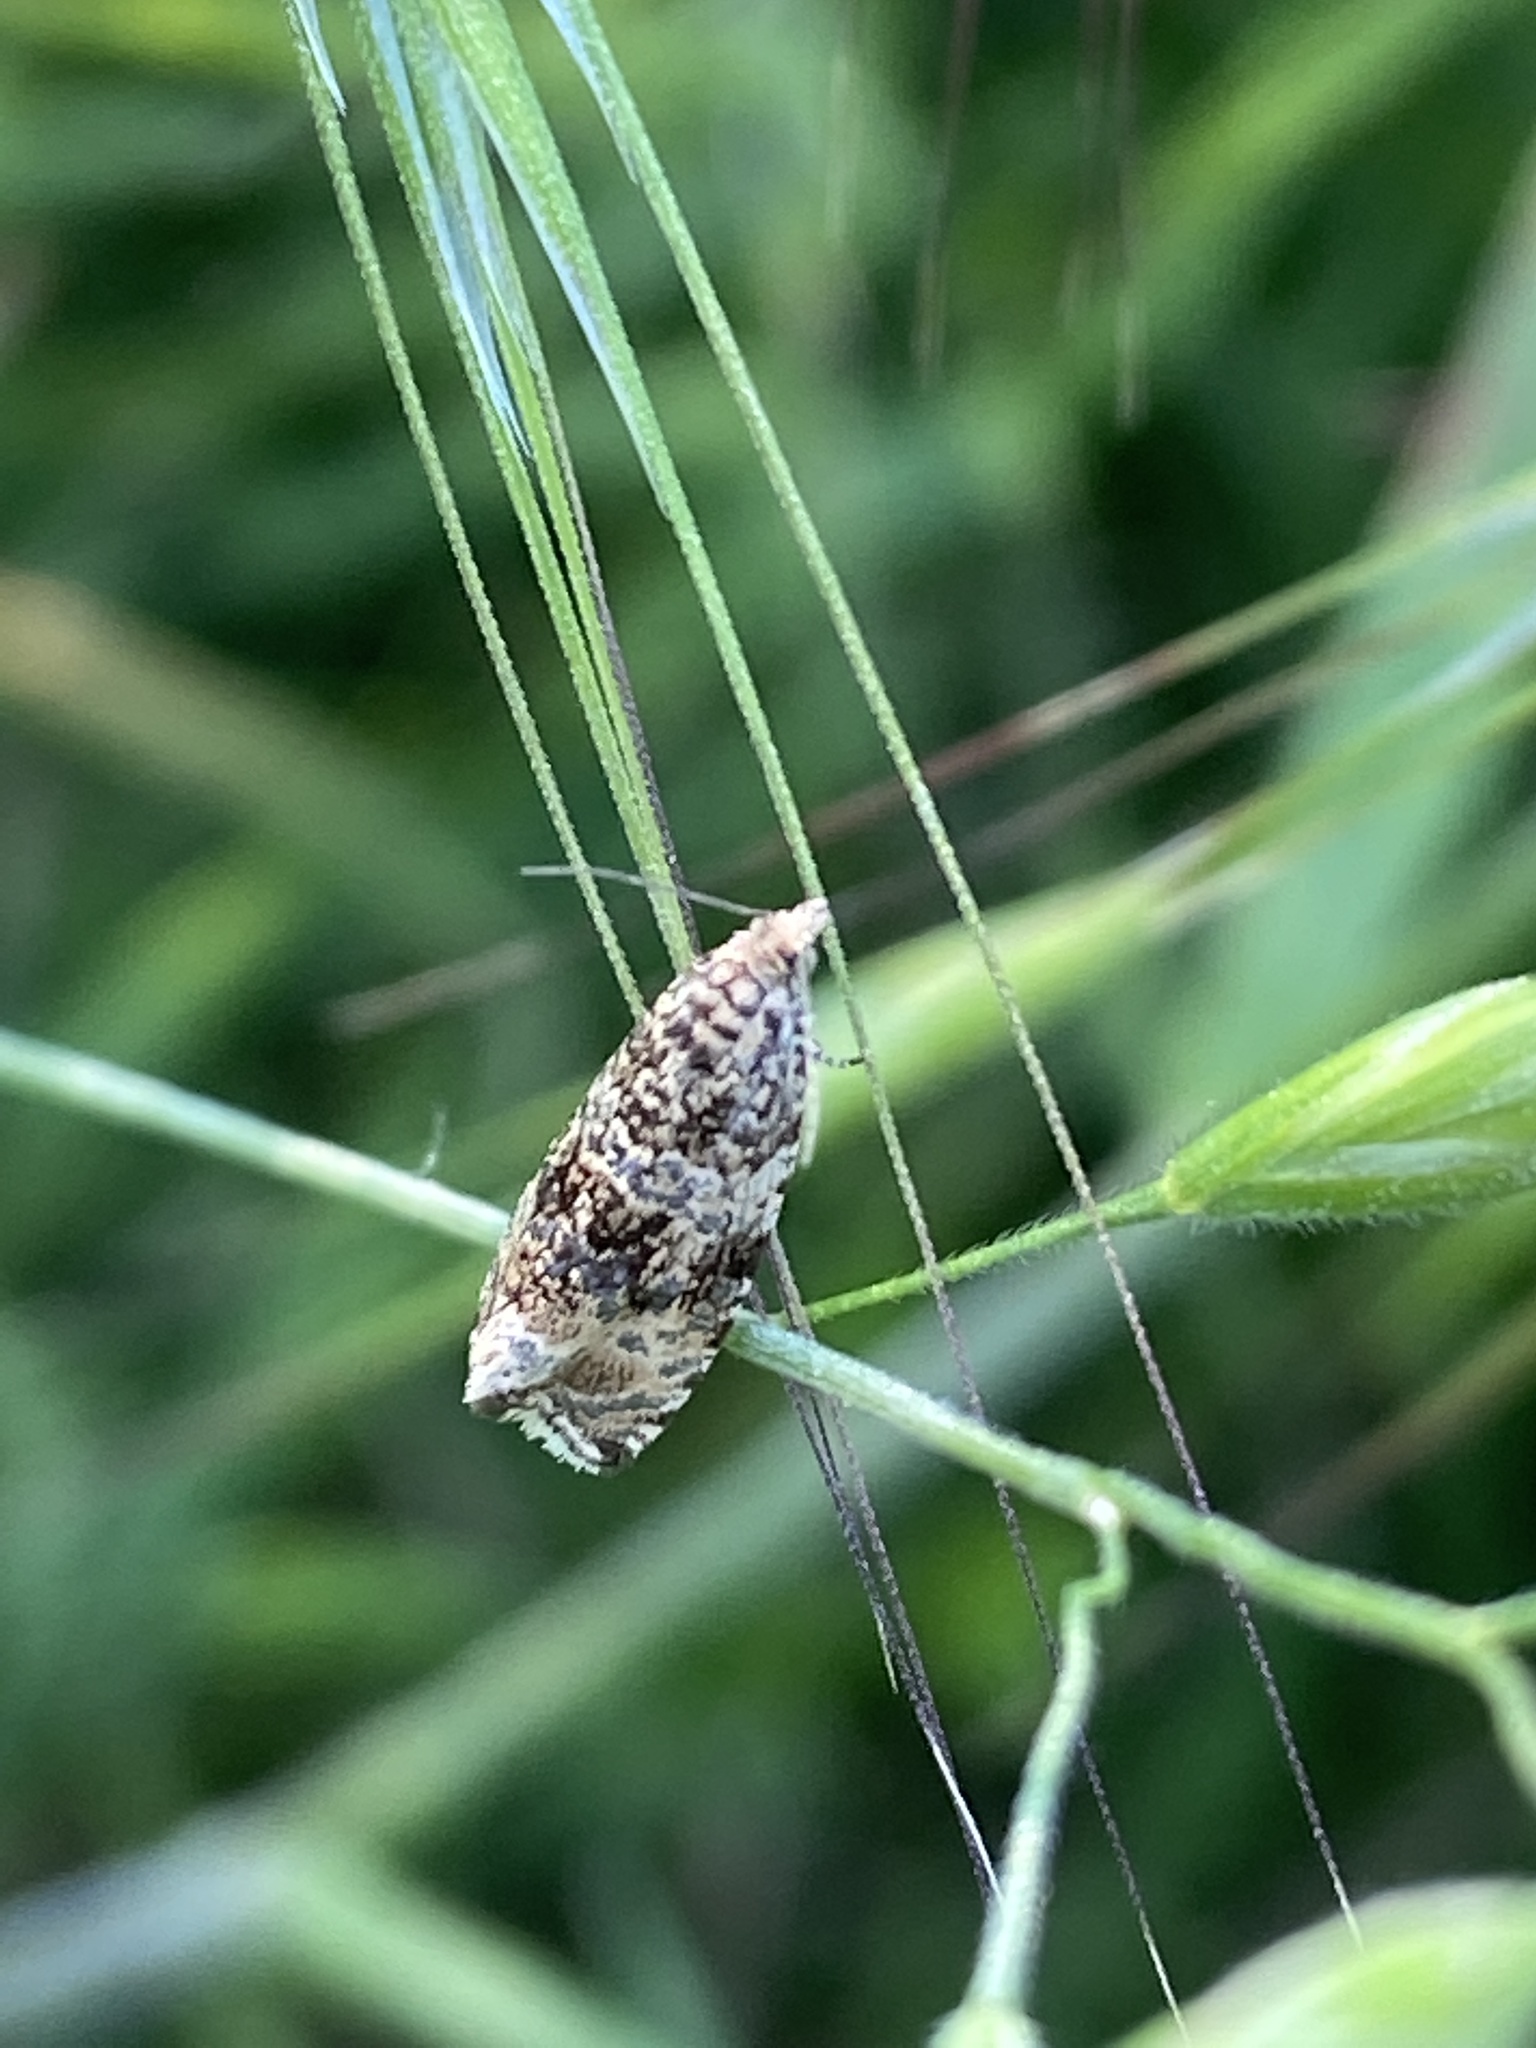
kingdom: Animalia
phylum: Arthropoda
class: Insecta
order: Lepidoptera
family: Tortricidae
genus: Syricoris
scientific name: Syricoris lacunana
